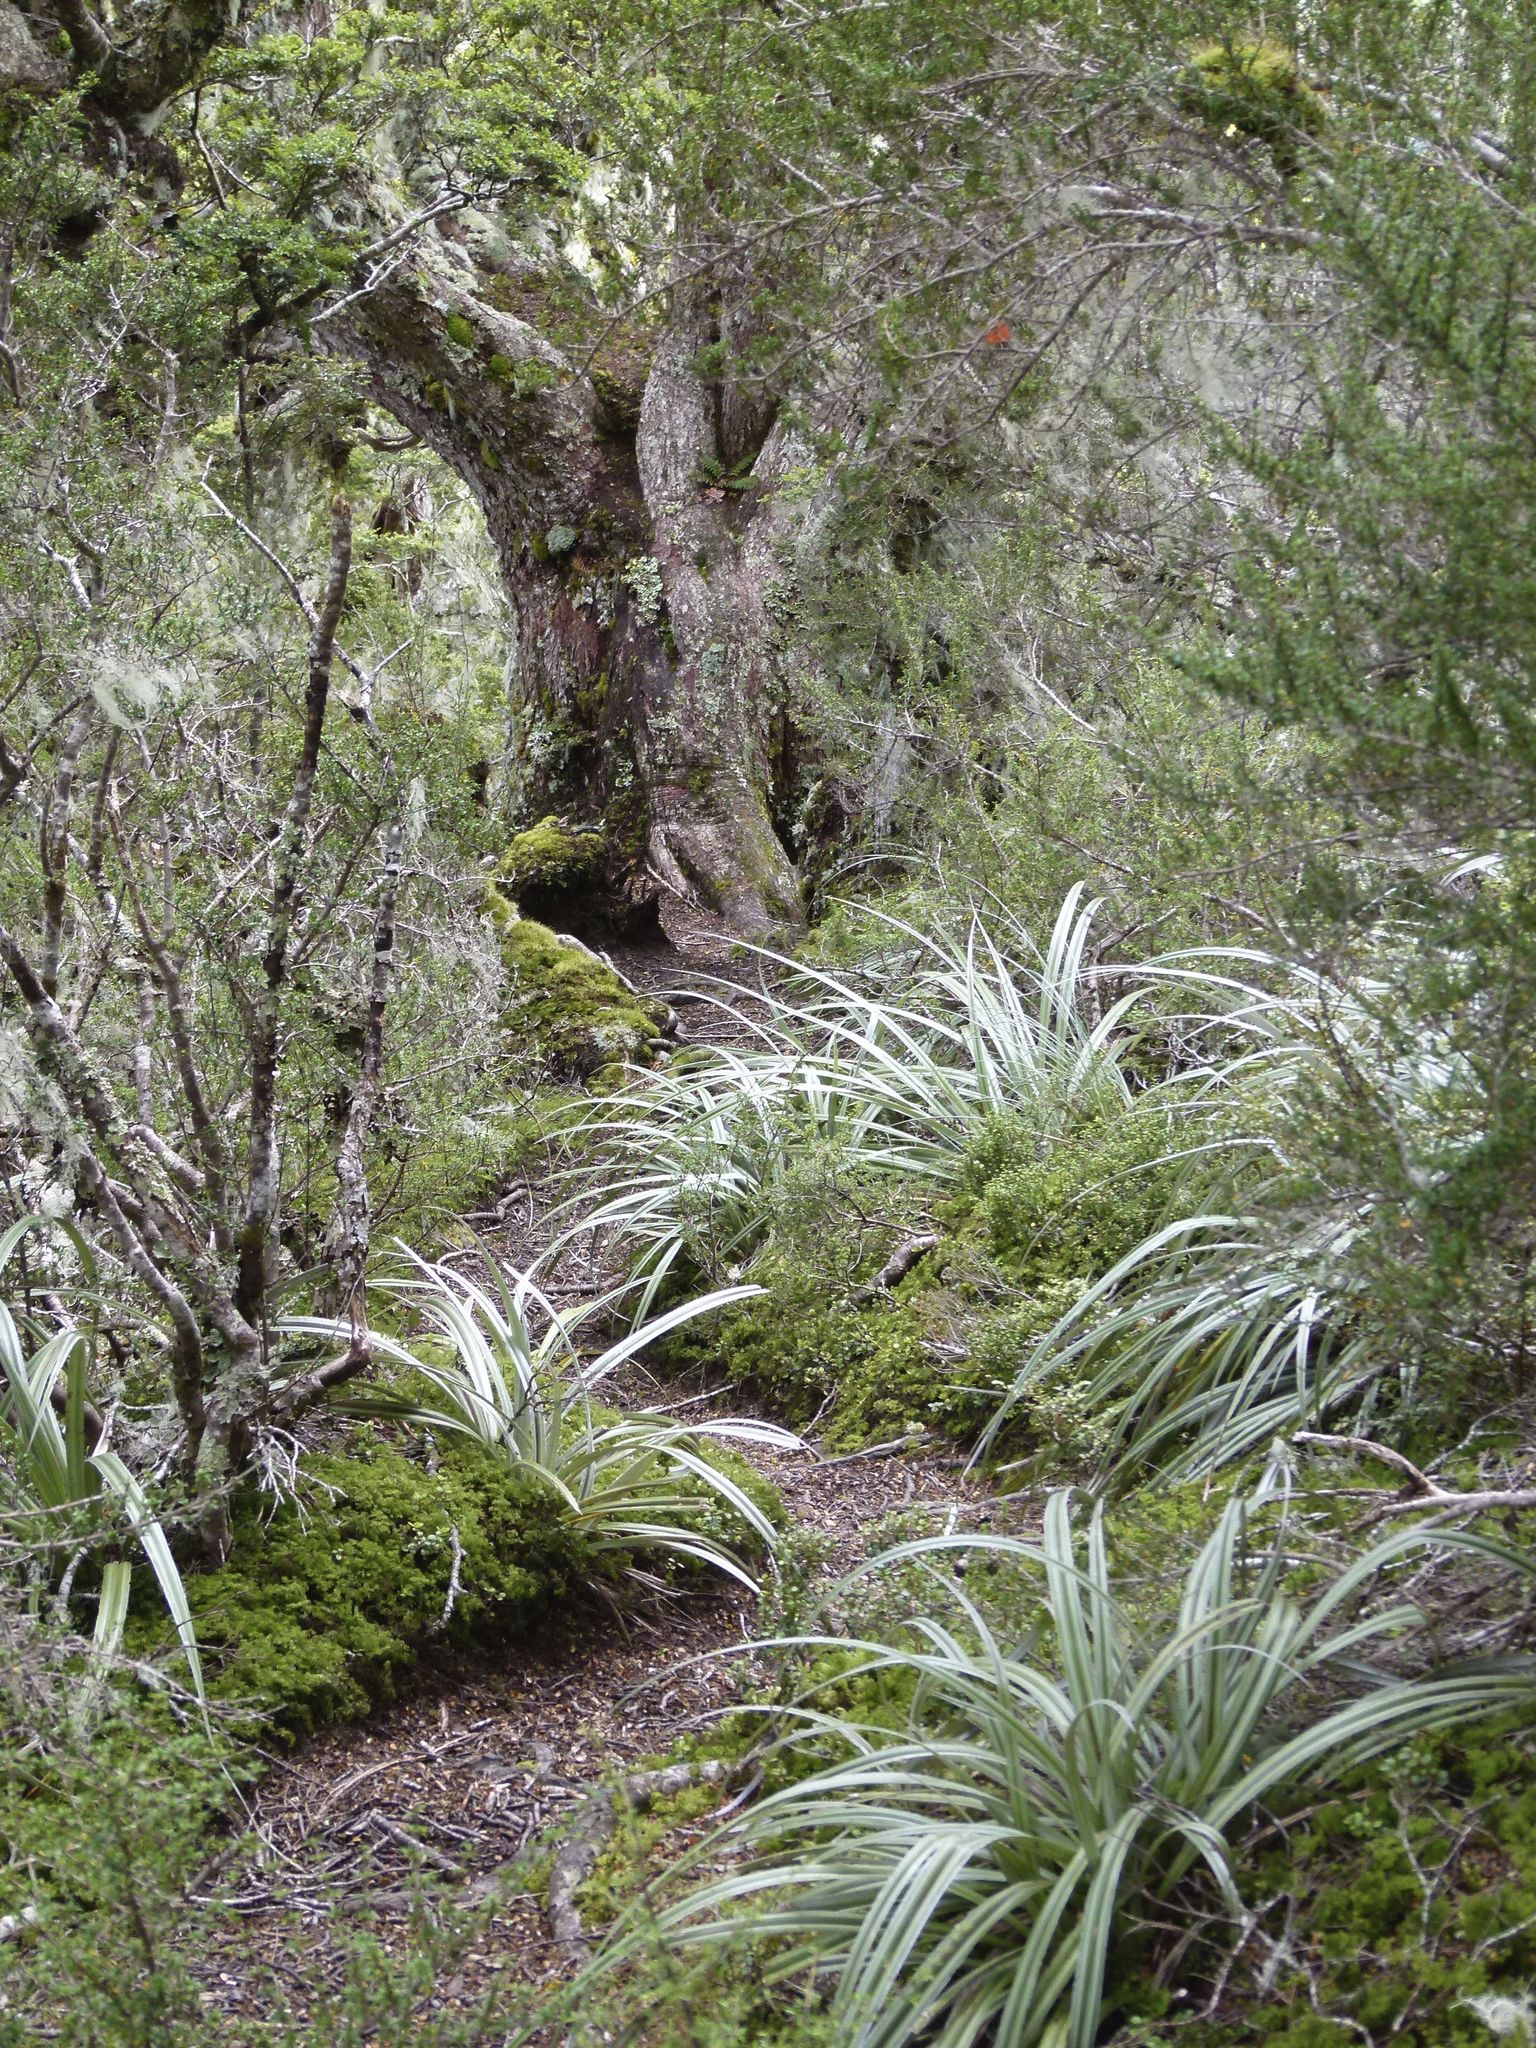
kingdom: Plantae
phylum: Tracheophyta
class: Liliopsida
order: Asparagales
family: Asteliaceae
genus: Astelia
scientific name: Astelia nervosa
